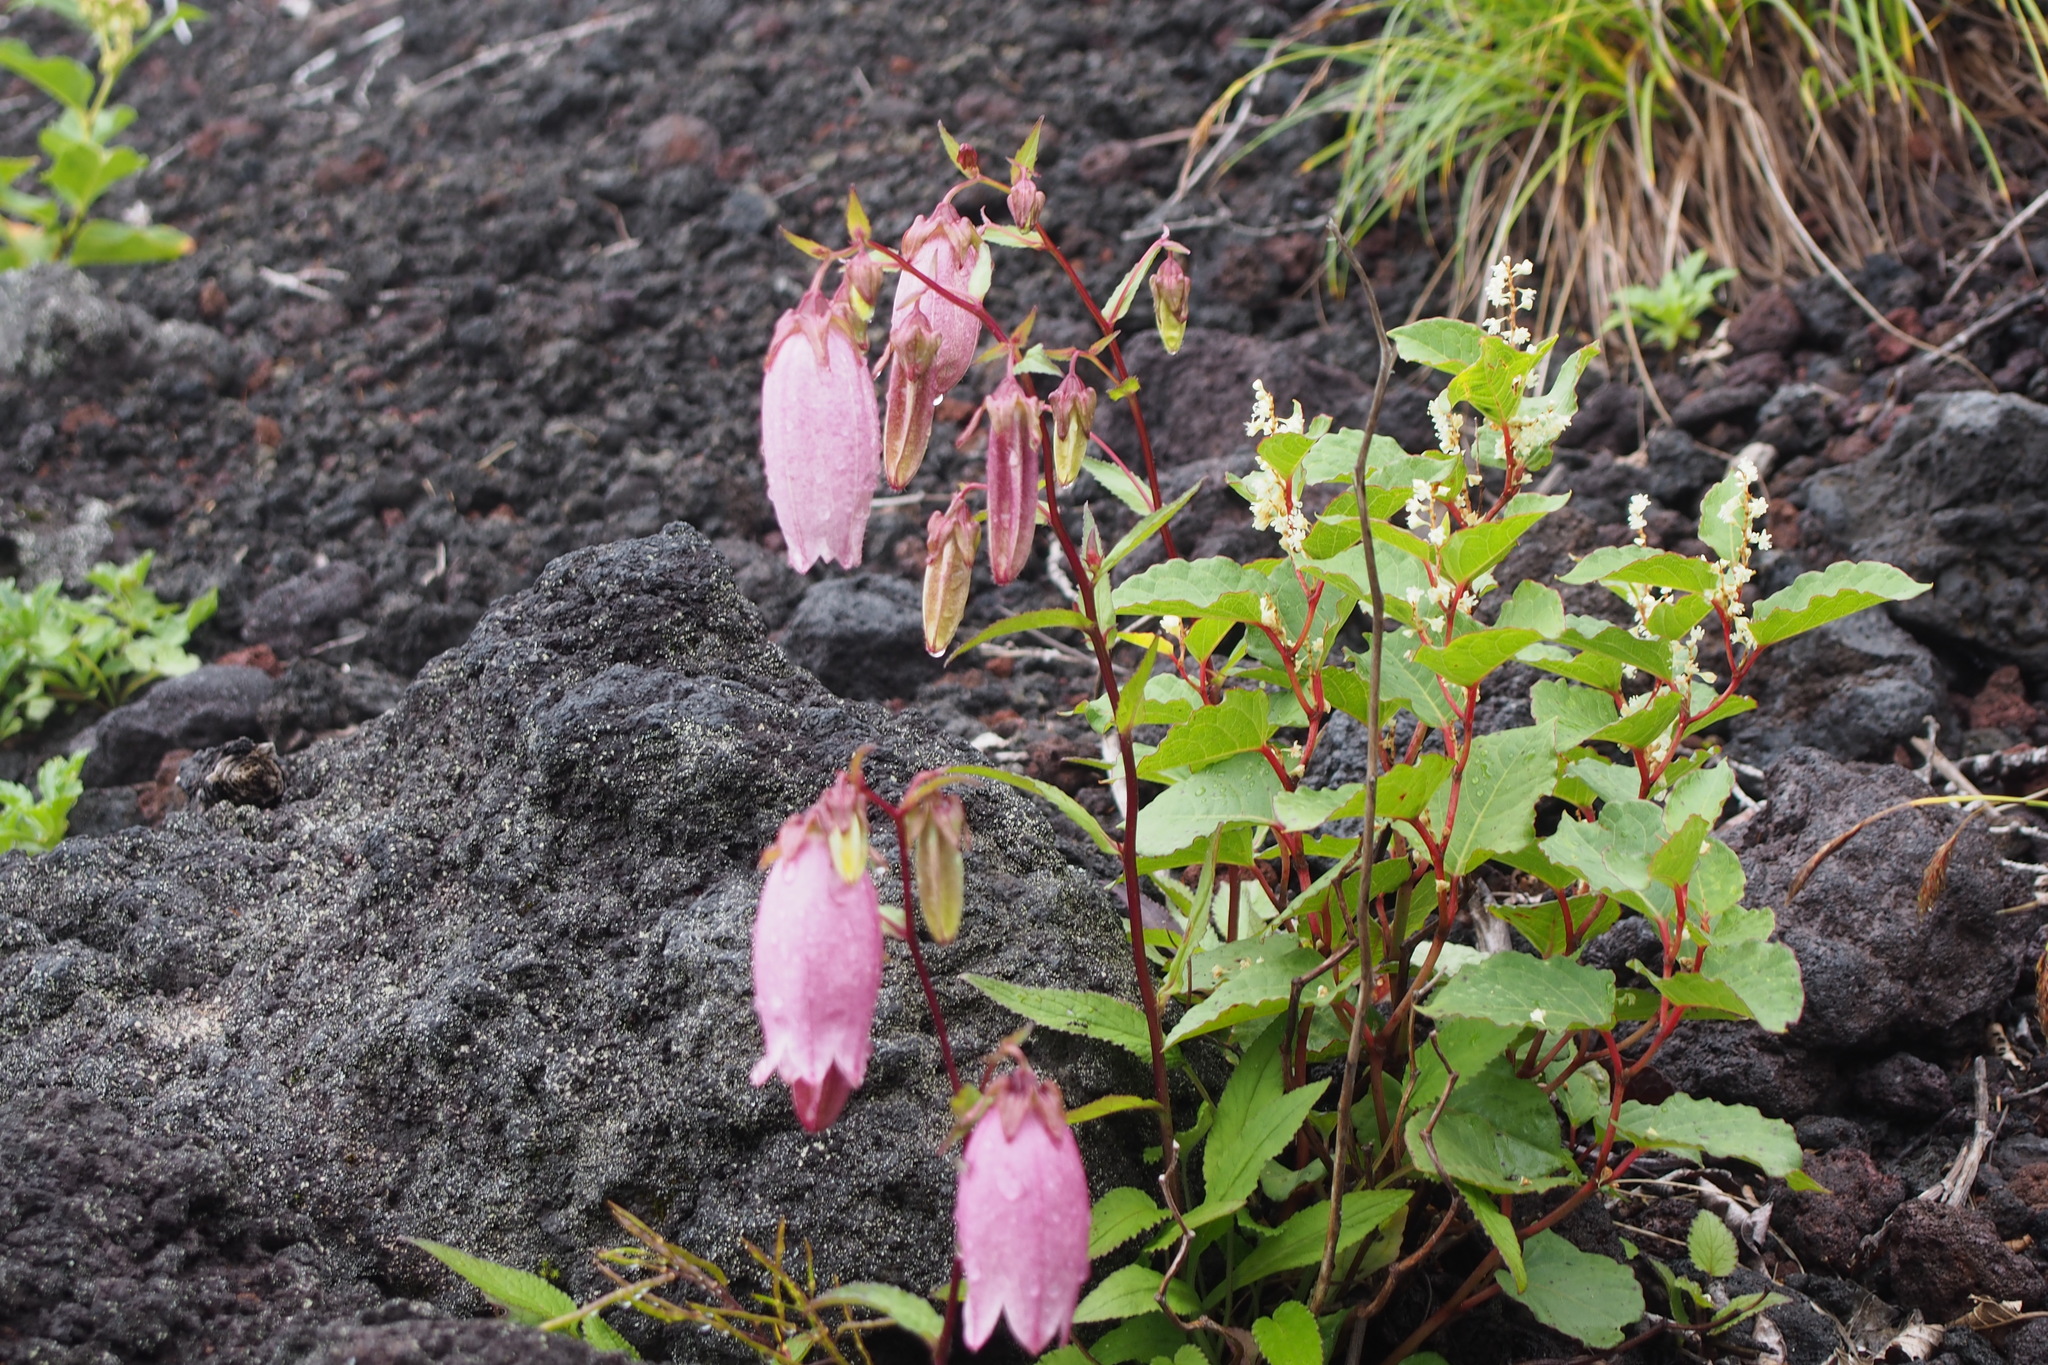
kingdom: Plantae
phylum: Tracheophyta
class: Magnoliopsida
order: Asterales
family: Campanulaceae
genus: Campanula
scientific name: Campanula punctata
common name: Spotted bellflower
